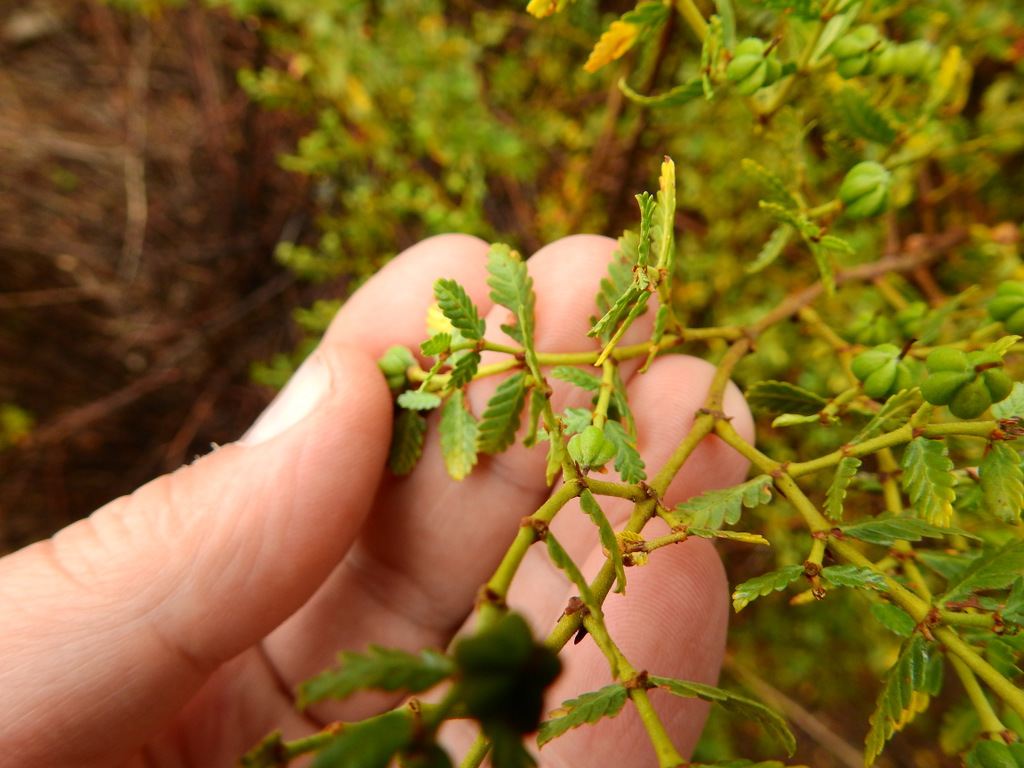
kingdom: Plantae
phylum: Tracheophyta
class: Magnoliopsida
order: Zygophyllales
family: Zygophyllaceae
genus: Larrea
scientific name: Larrea nitida
